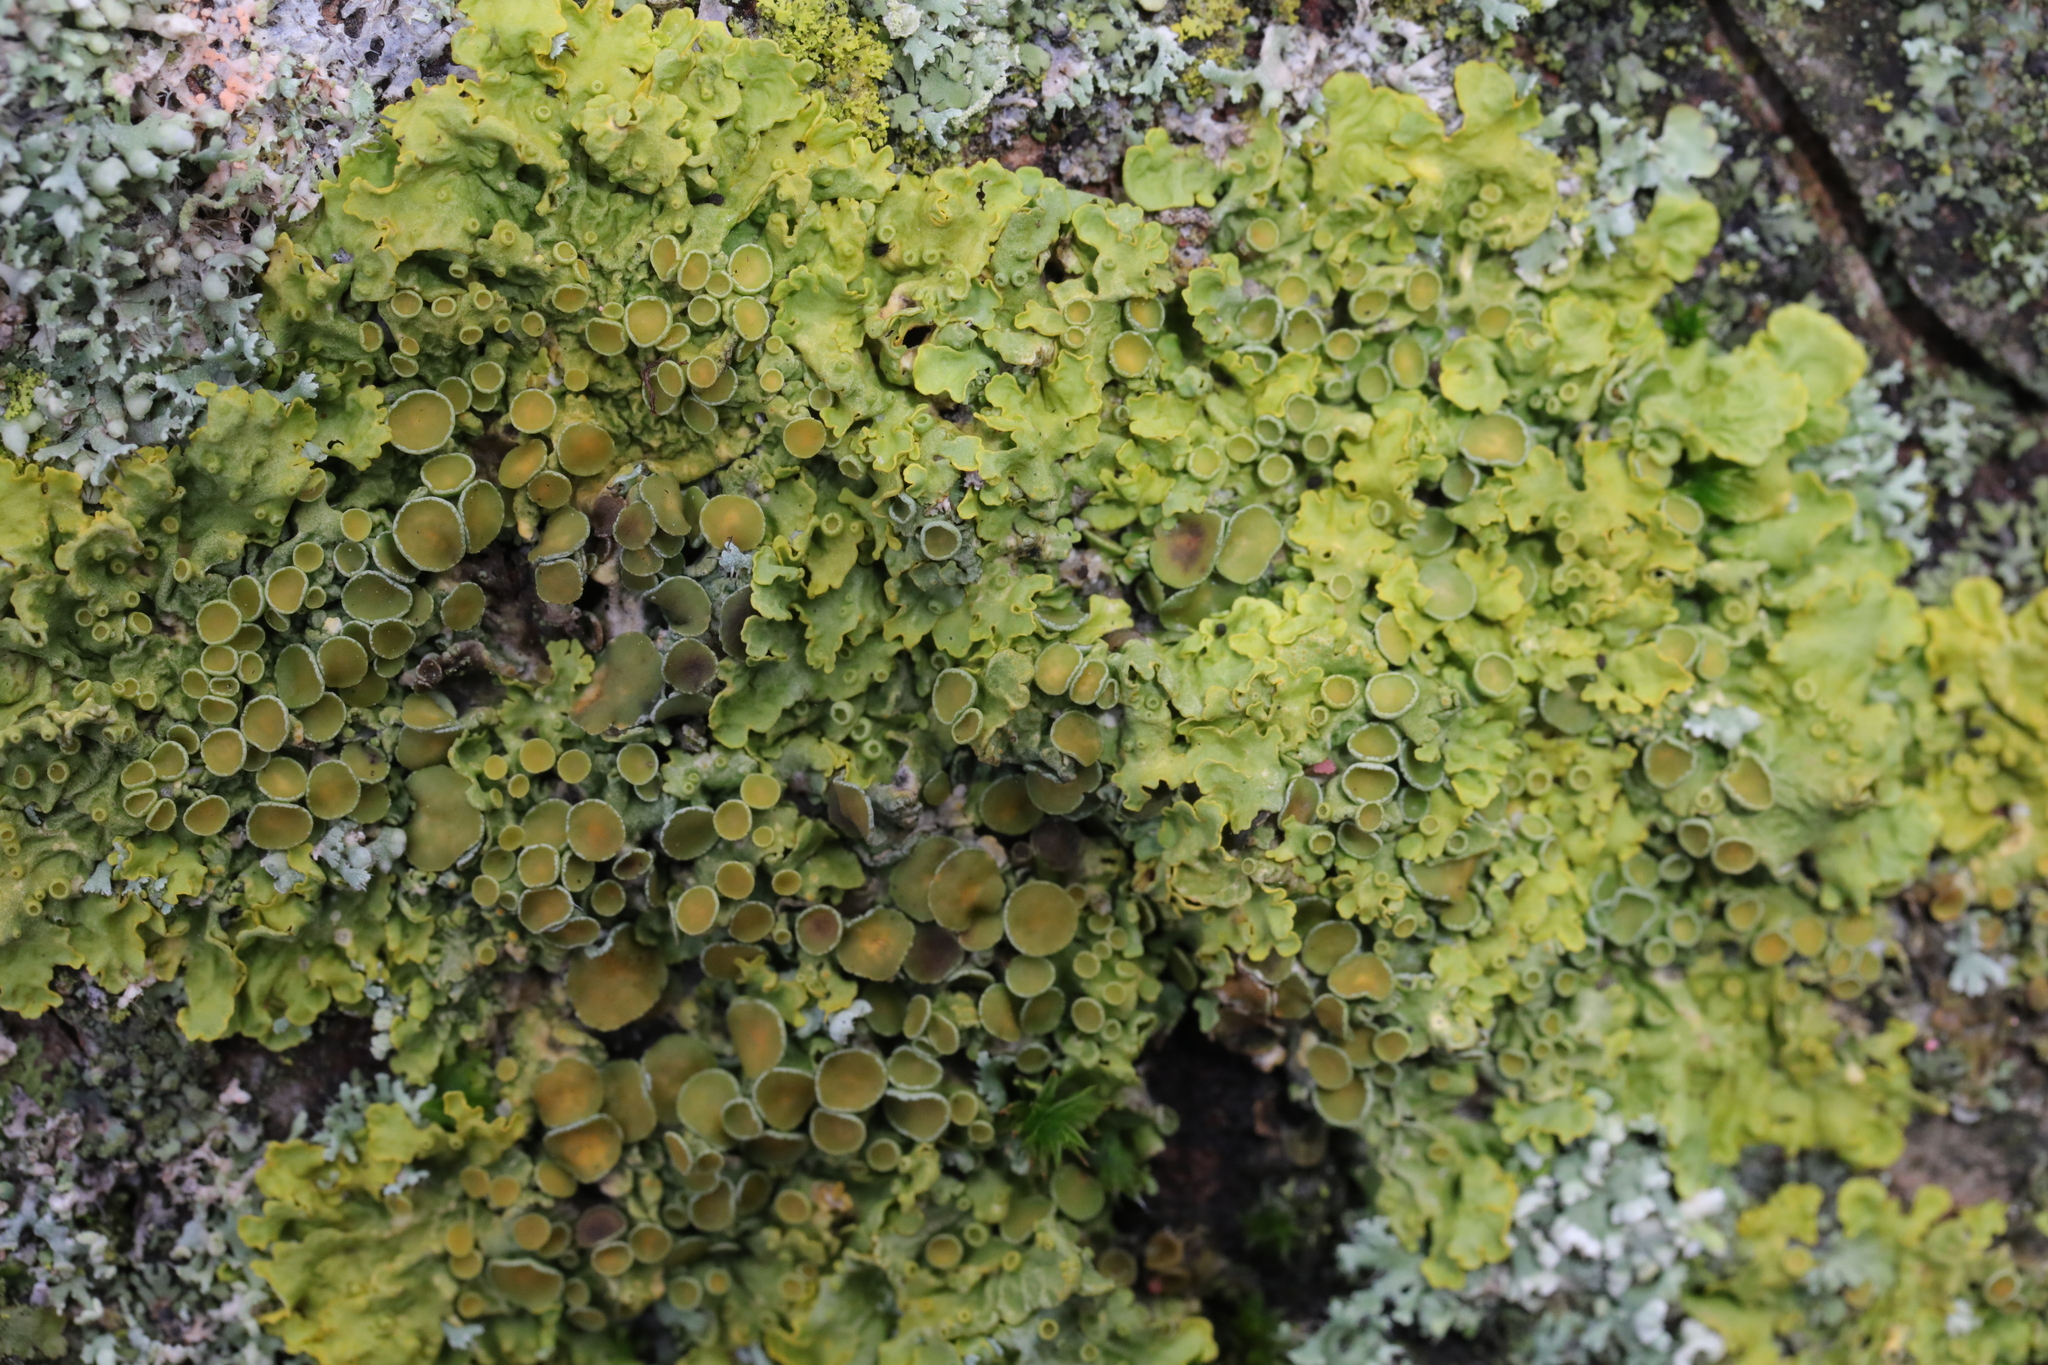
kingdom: Fungi
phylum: Ascomycota
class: Lecanoromycetes
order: Teloschistales
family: Teloschistaceae
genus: Xanthoria
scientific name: Xanthoria parietina
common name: Common orange lichen
